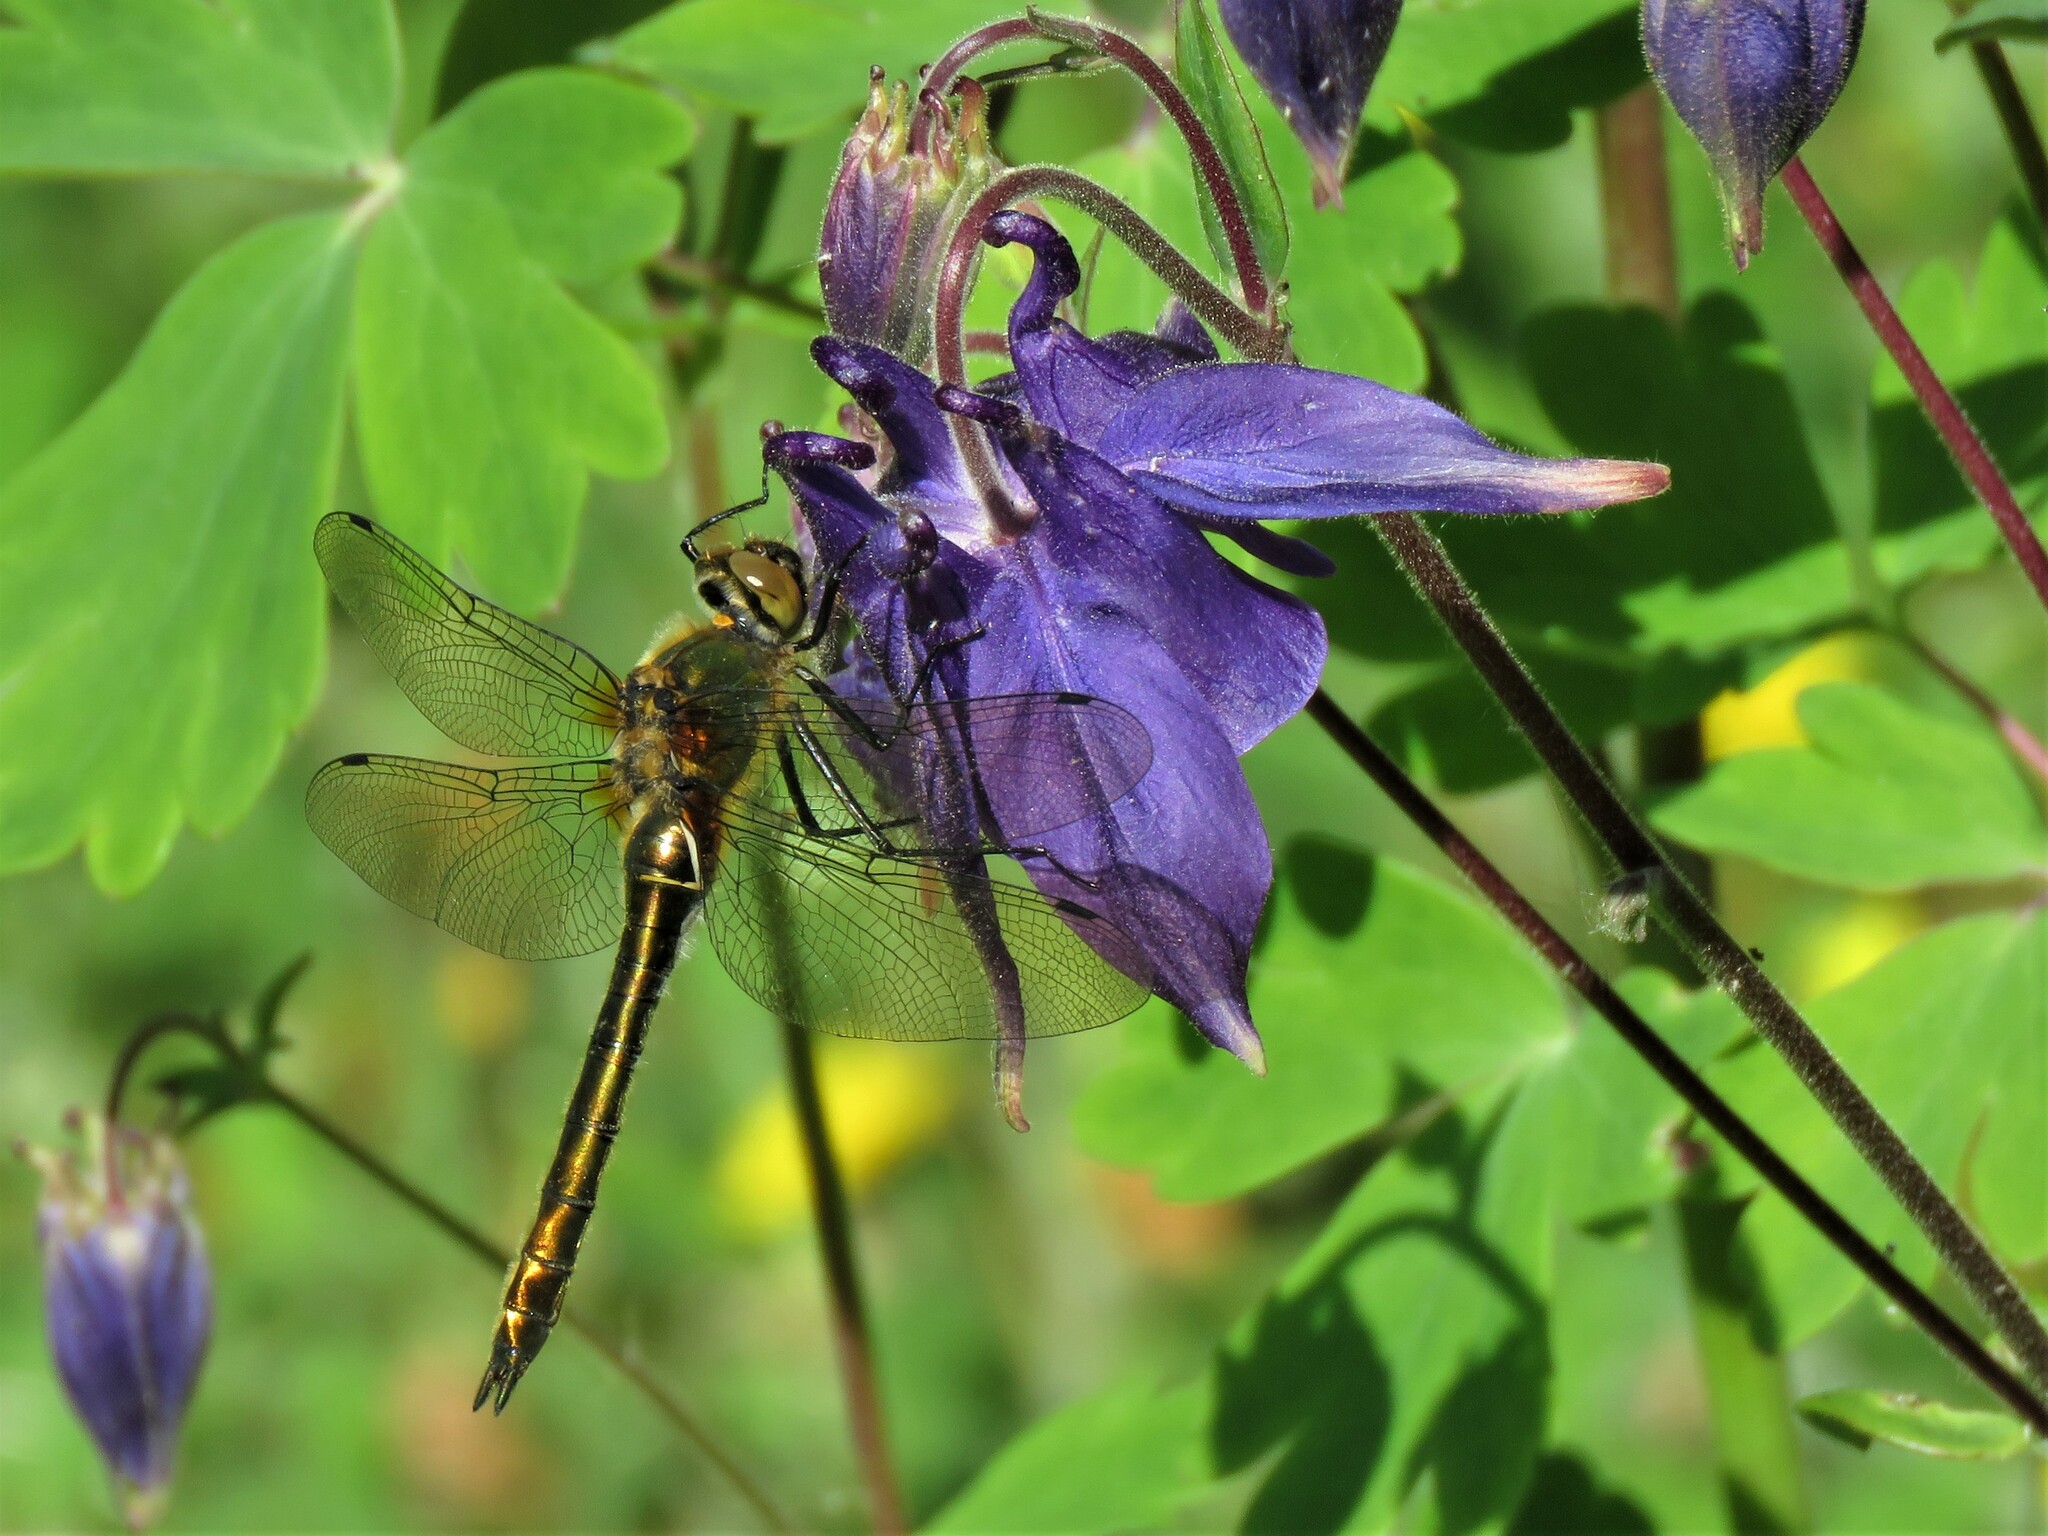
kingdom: Animalia
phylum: Arthropoda
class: Insecta
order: Odonata
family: Corduliidae
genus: Cordulia
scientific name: Cordulia aenea
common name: Downy emerald
